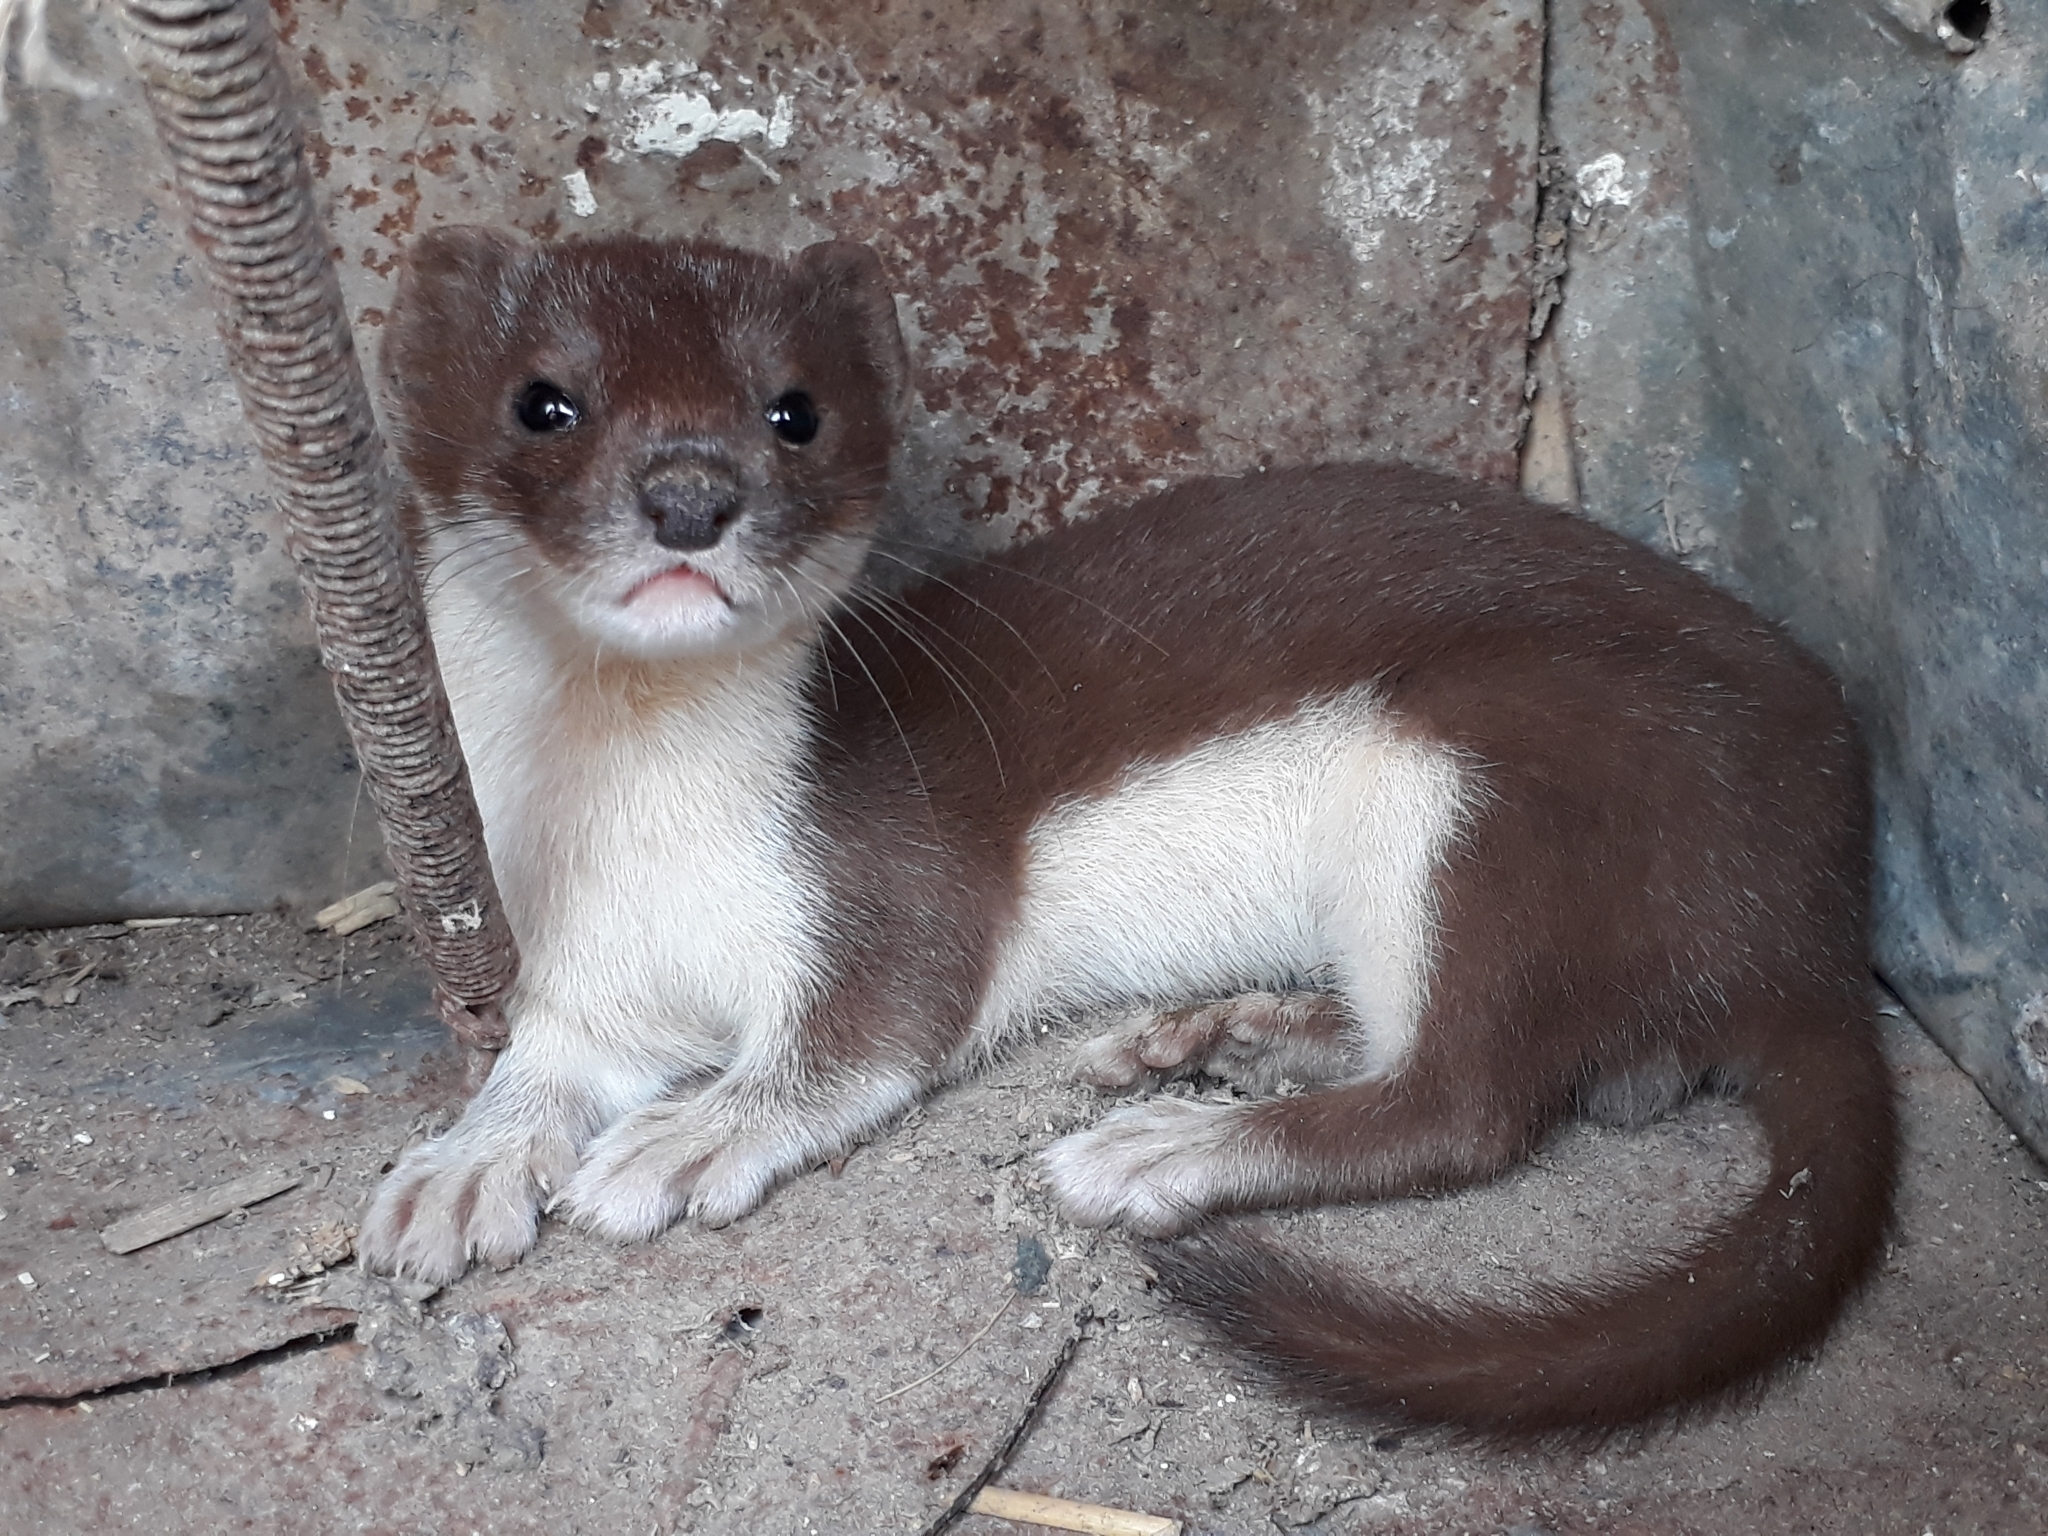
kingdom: Animalia
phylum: Chordata
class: Mammalia
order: Carnivora
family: Mustelidae
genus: Mustela
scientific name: Mustela nivalis
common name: Least weasel
